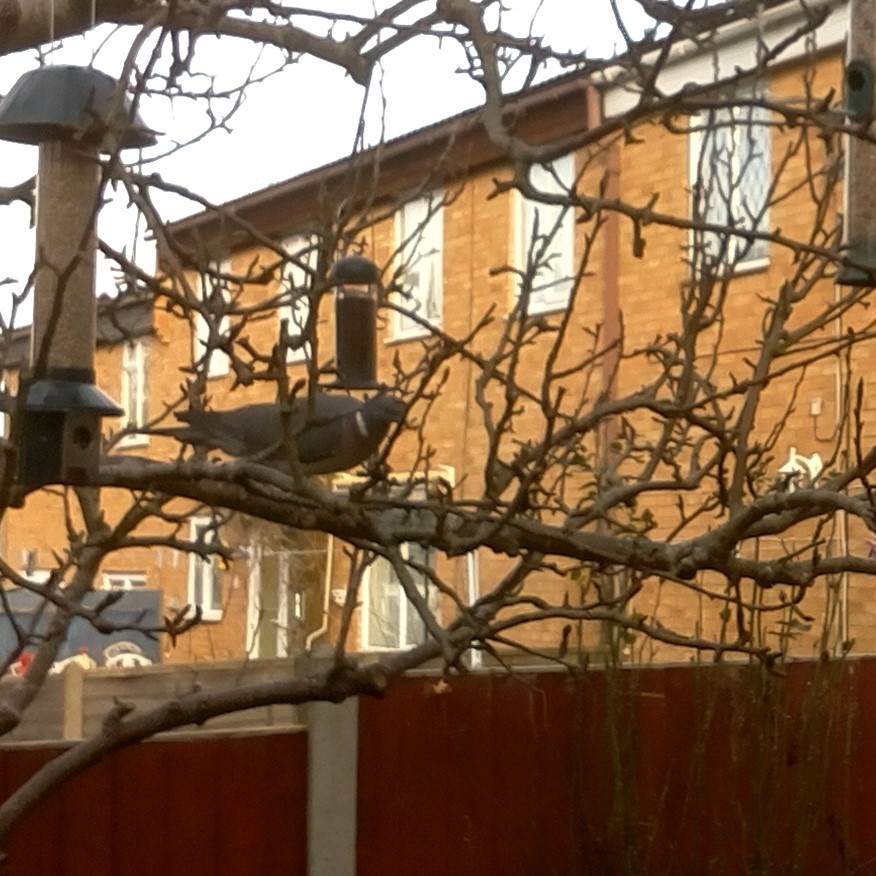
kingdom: Animalia
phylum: Chordata
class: Aves
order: Columbiformes
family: Columbidae
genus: Columba
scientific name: Columba palumbus
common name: Common wood pigeon
